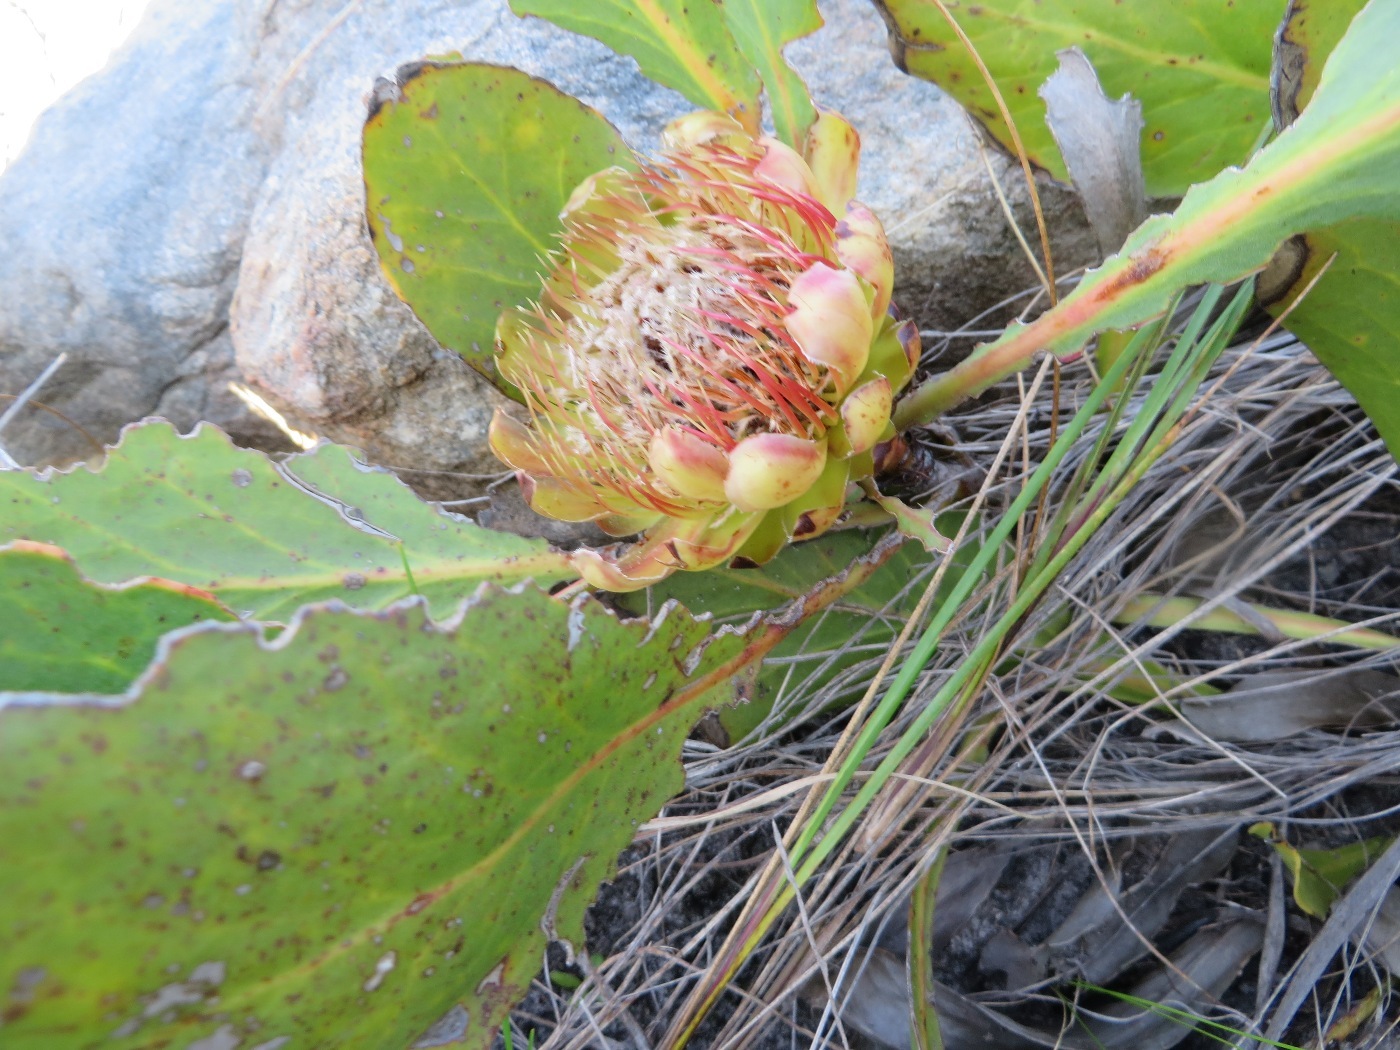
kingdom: Plantae
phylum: Tracheophyta
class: Magnoliopsida
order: Proteales
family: Proteaceae
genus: Protea
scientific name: Protea acaulos
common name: Common ground sugarbush
